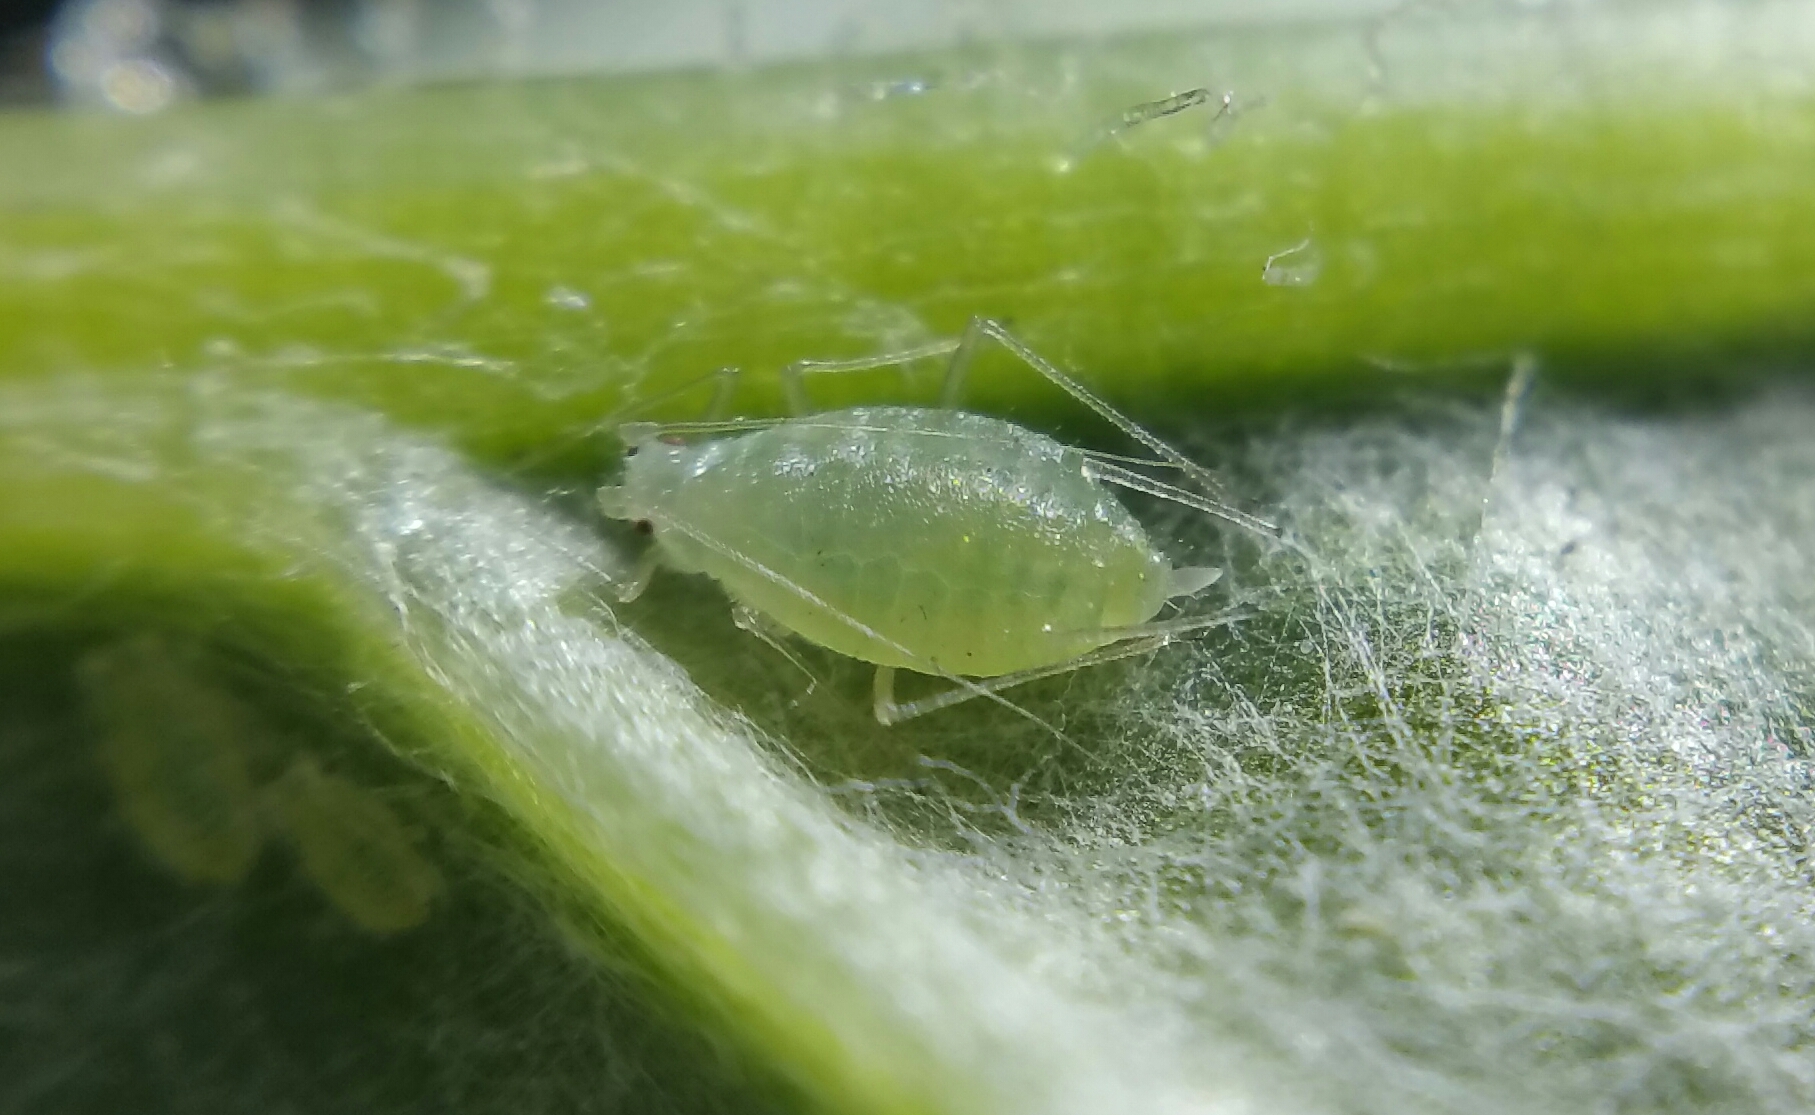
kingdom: Animalia
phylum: Arthropoda
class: Insecta
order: Hemiptera
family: Aphididae
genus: Vesiculaphis
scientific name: Vesiculaphis Capitophorus elaeagni
